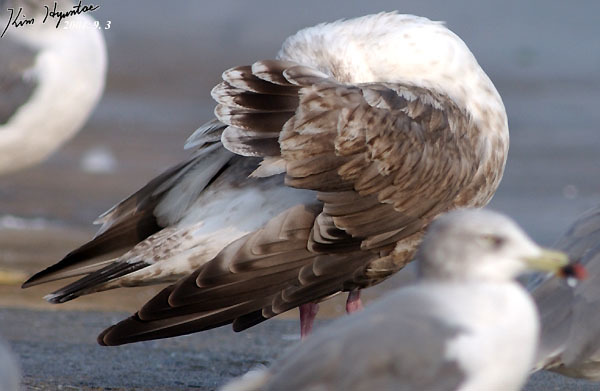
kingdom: Animalia
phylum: Chordata
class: Aves
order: Charadriiformes
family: Laridae
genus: Larus
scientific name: Larus schistisagus
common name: Slaty-backed gull
